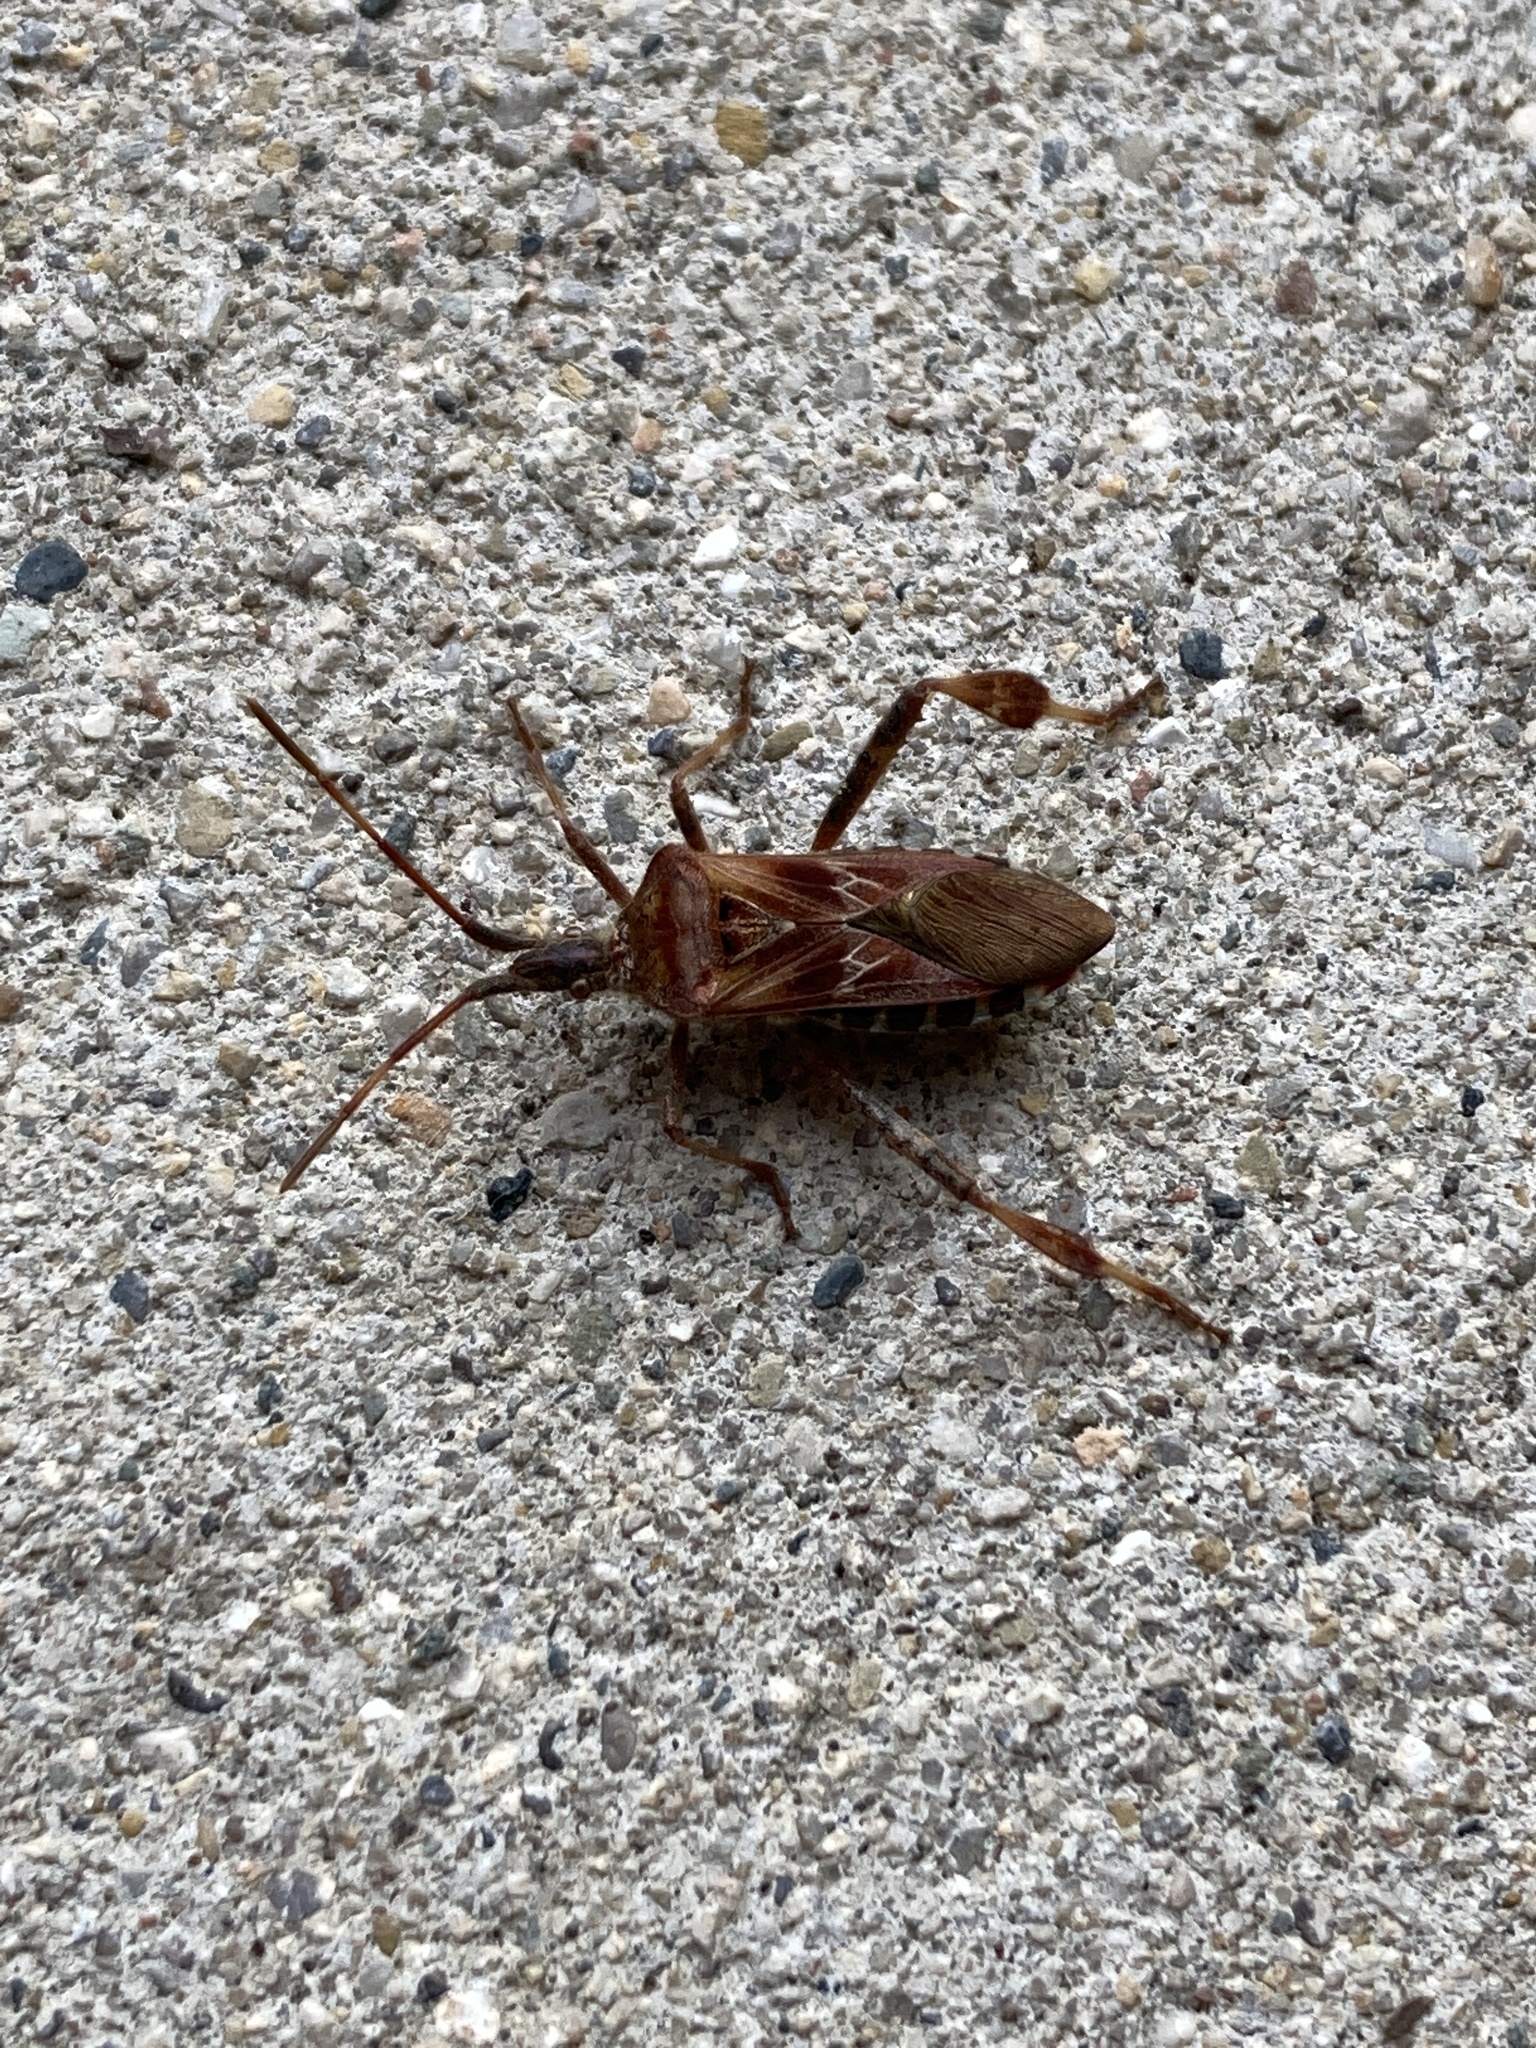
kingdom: Animalia
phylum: Arthropoda
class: Insecta
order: Hemiptera
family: Coreidae
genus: Leptoglossus
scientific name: Leptoglossus occidentalis
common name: Western conifer-seed bug
